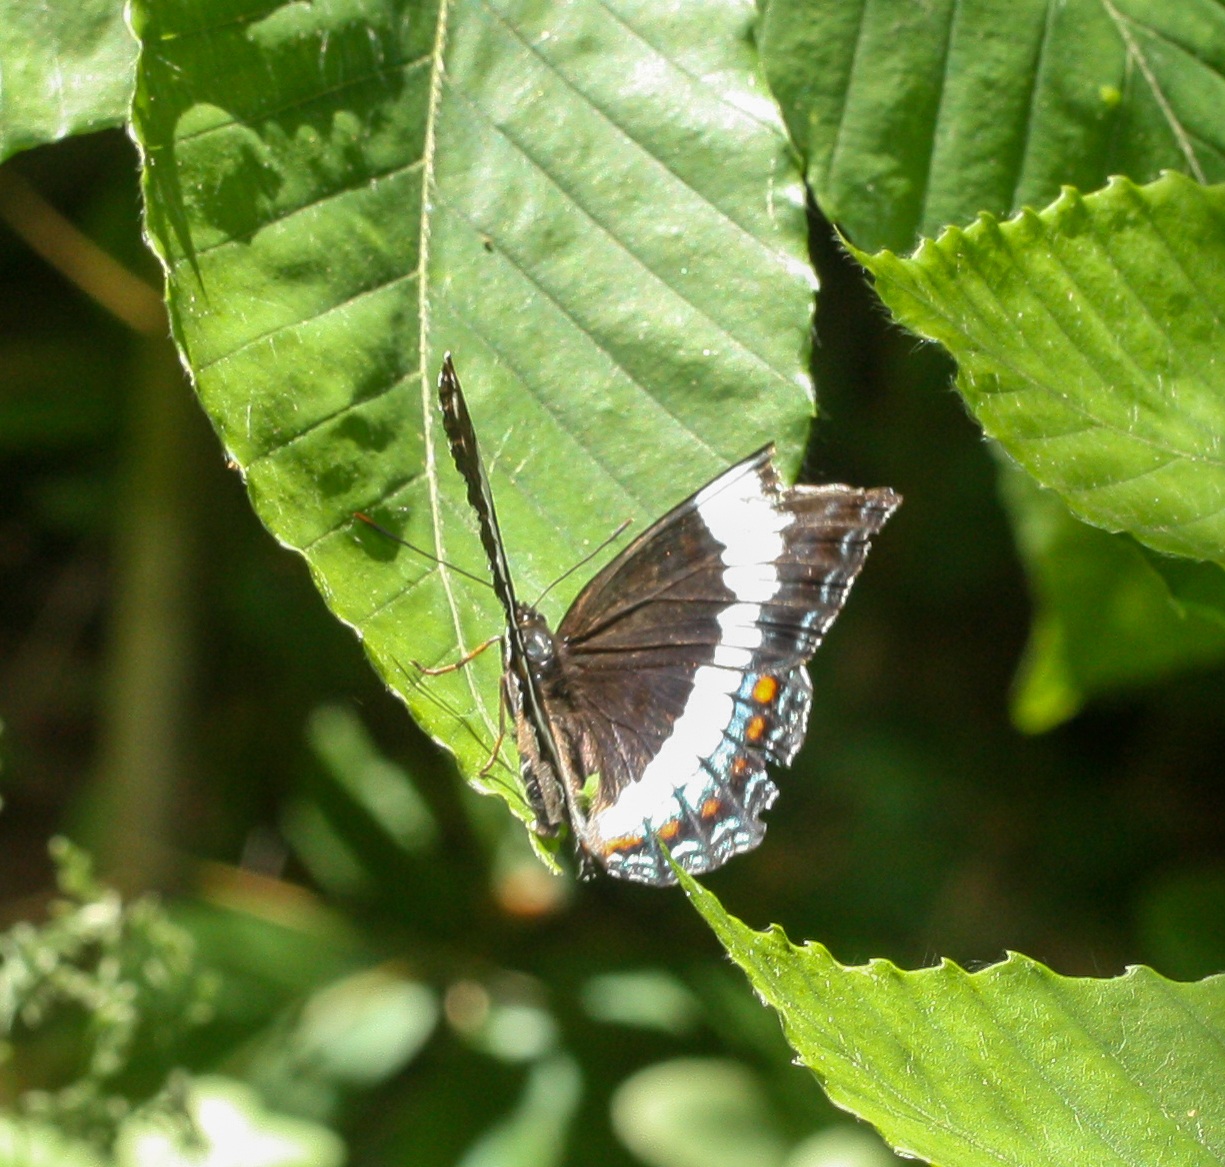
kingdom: Animalia
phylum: Arthropoda
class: Insecta
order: Lepidoptera
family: Nymphalidae
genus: Limenitis
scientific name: Limenitis arthemis
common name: Red-spotted admiral
